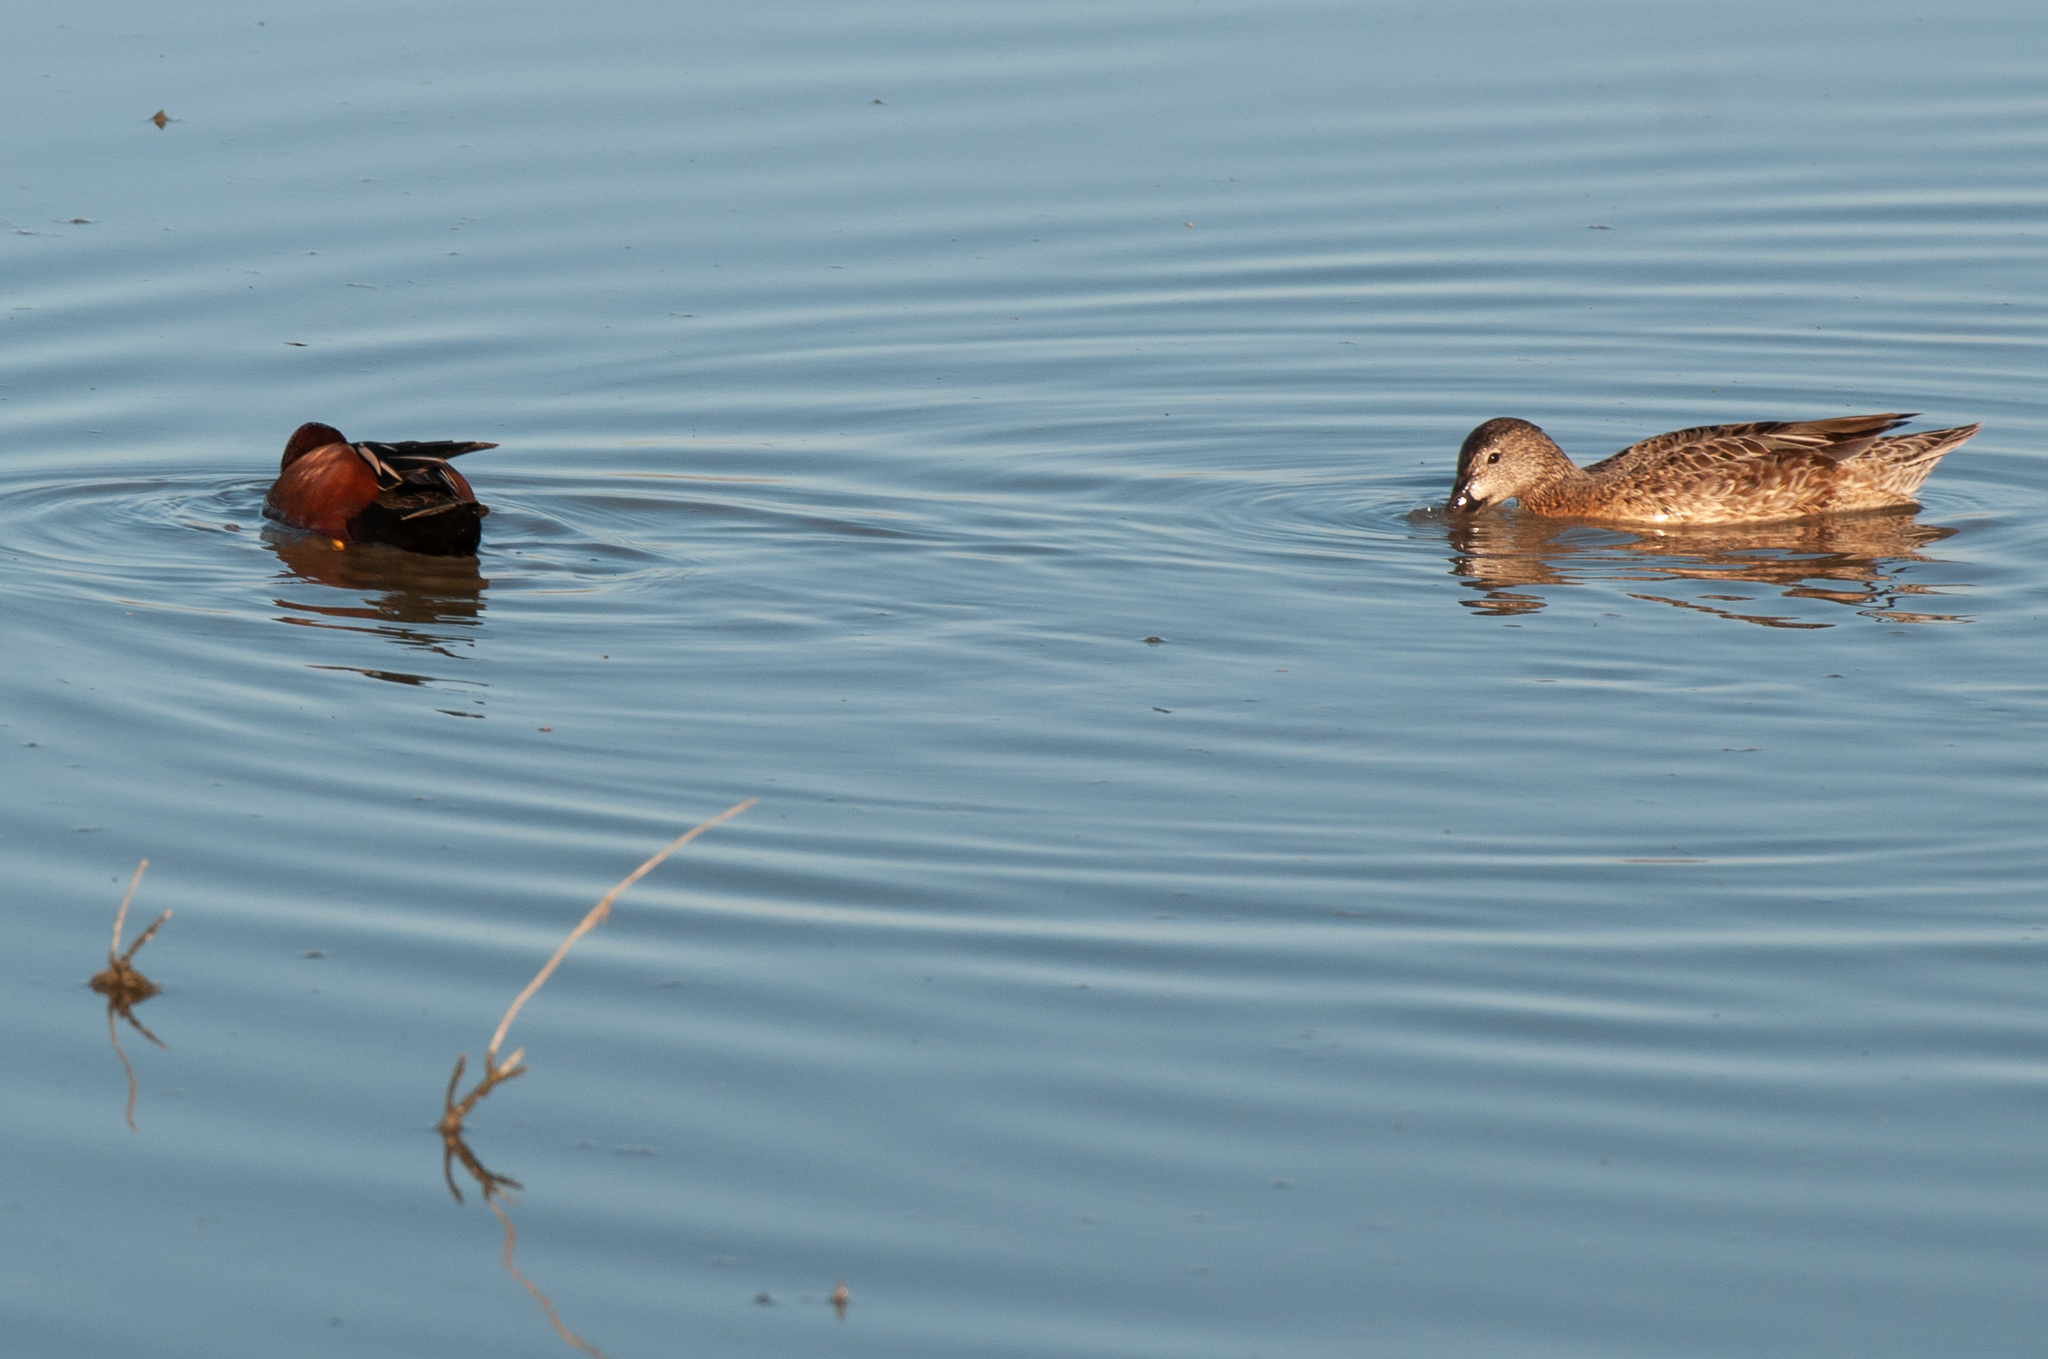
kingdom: Animalia
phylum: Chordata
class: Aves
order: Anseriformes
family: Anatidae
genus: Spatula
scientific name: Spatula cyanoptera
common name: Cinnamon teal
